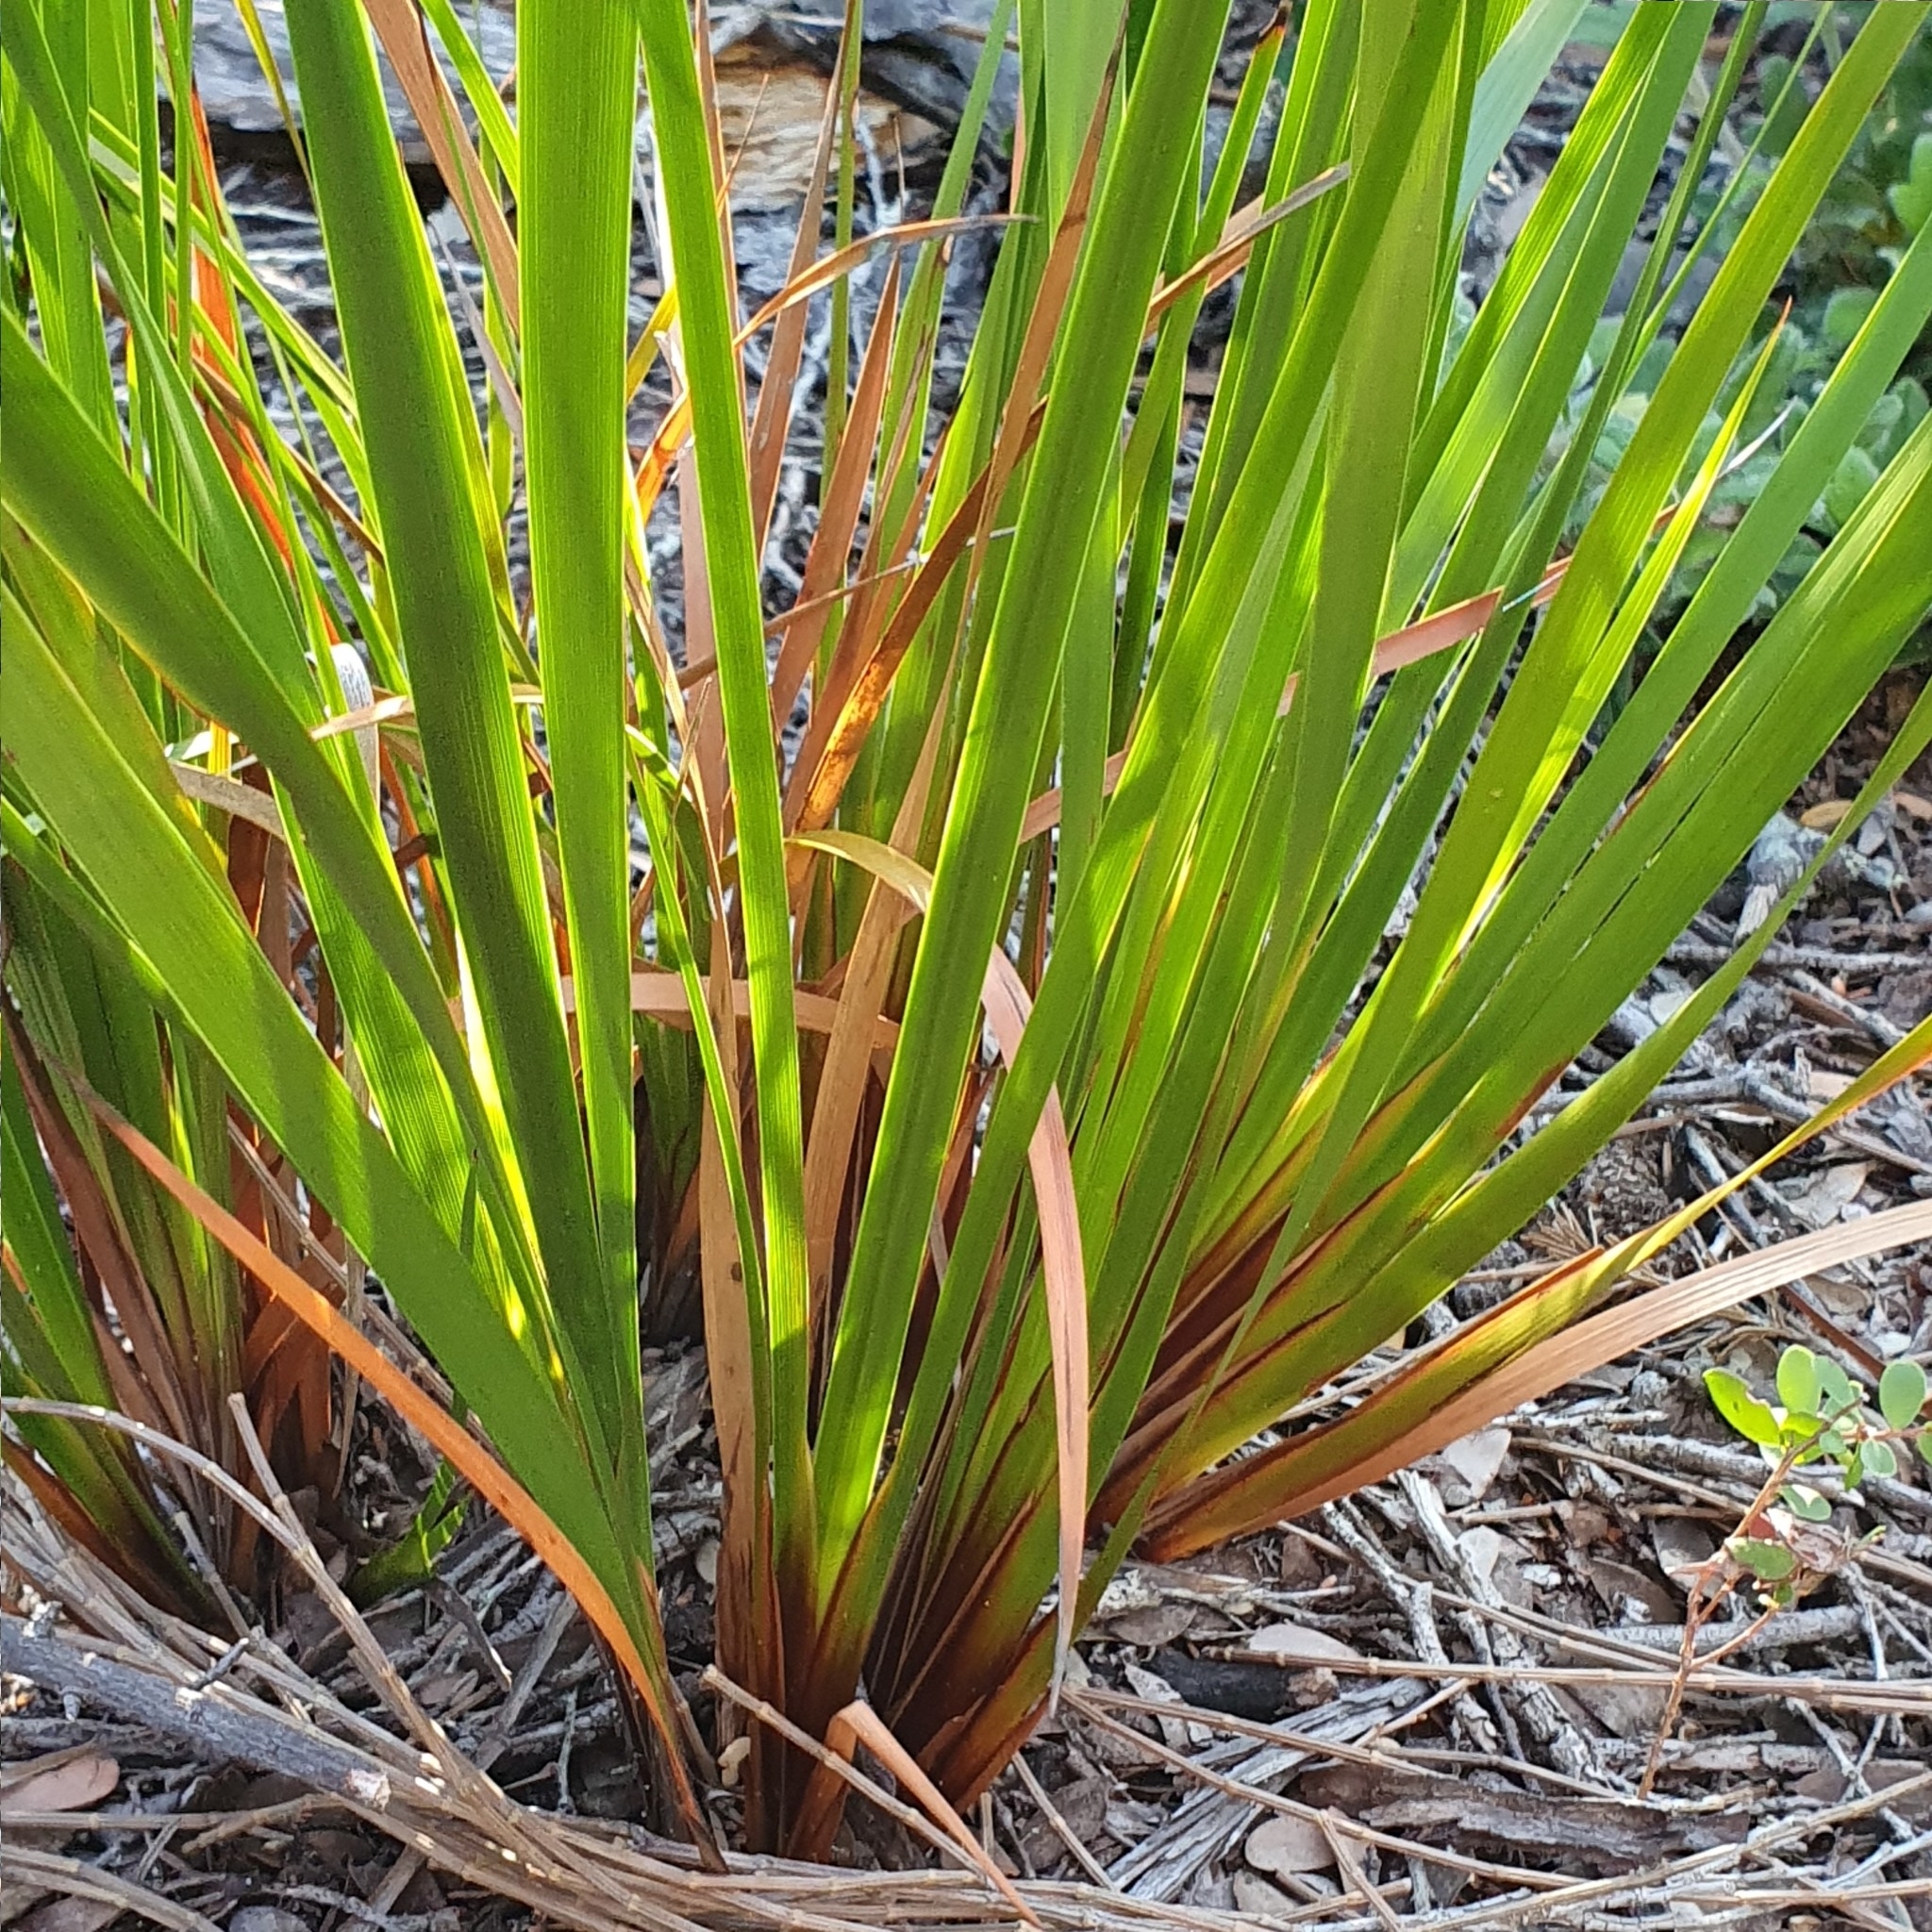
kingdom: Plantae
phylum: Tracheophyta
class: Liliopsida
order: Poales
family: Cyperaceae
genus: Lepidosperma
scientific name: Lepidosperma laterale
